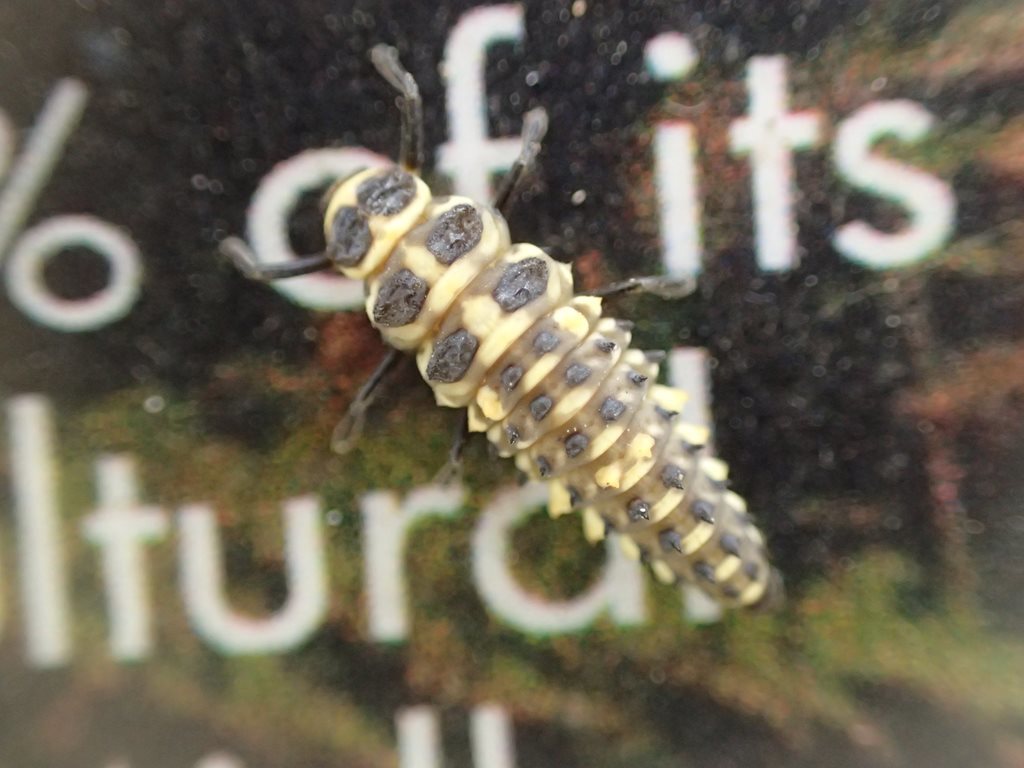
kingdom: Animalia
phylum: Arthropoda
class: Insecta
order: Coleoptera
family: Coccinellidae
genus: Cleobora
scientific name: Cleobora
